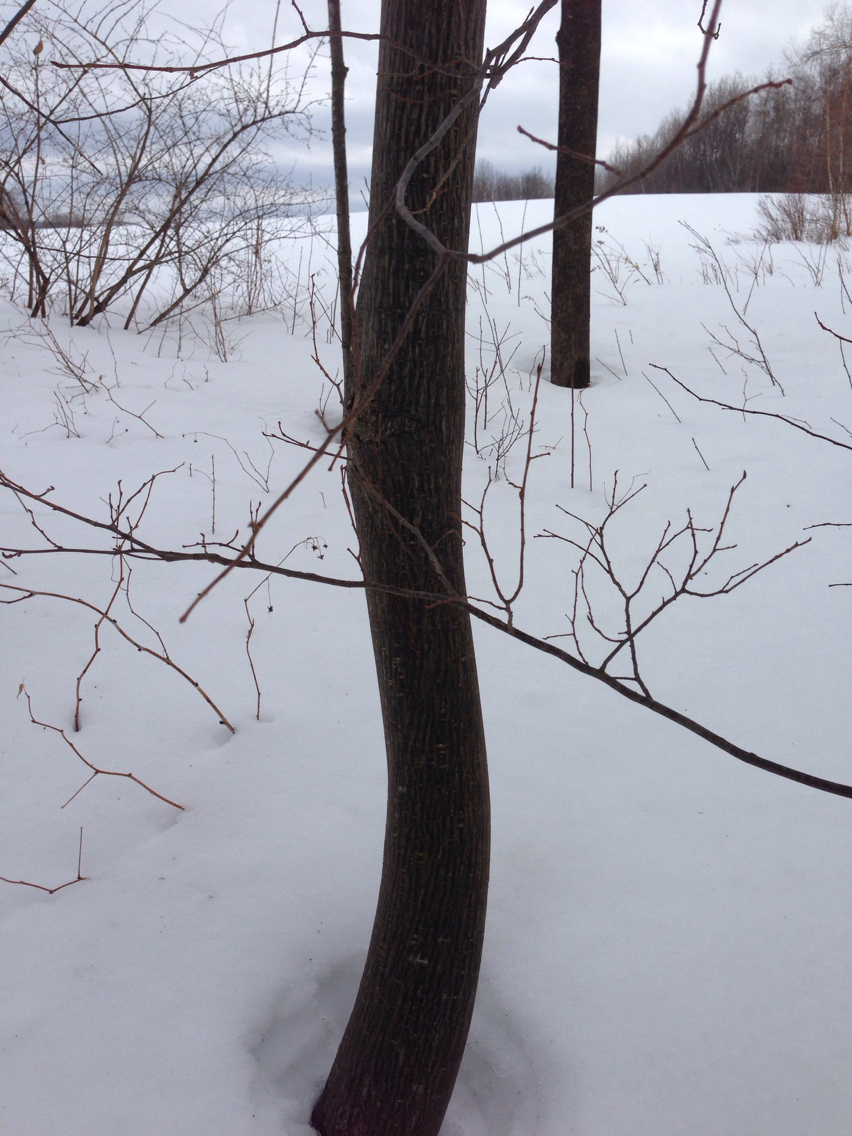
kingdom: Plantae
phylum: Tracheophyta
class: Magnoliopsida
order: Sapindales
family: Sapindaceae
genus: Acer
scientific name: Acer pensylvanicum
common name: Moosewood
